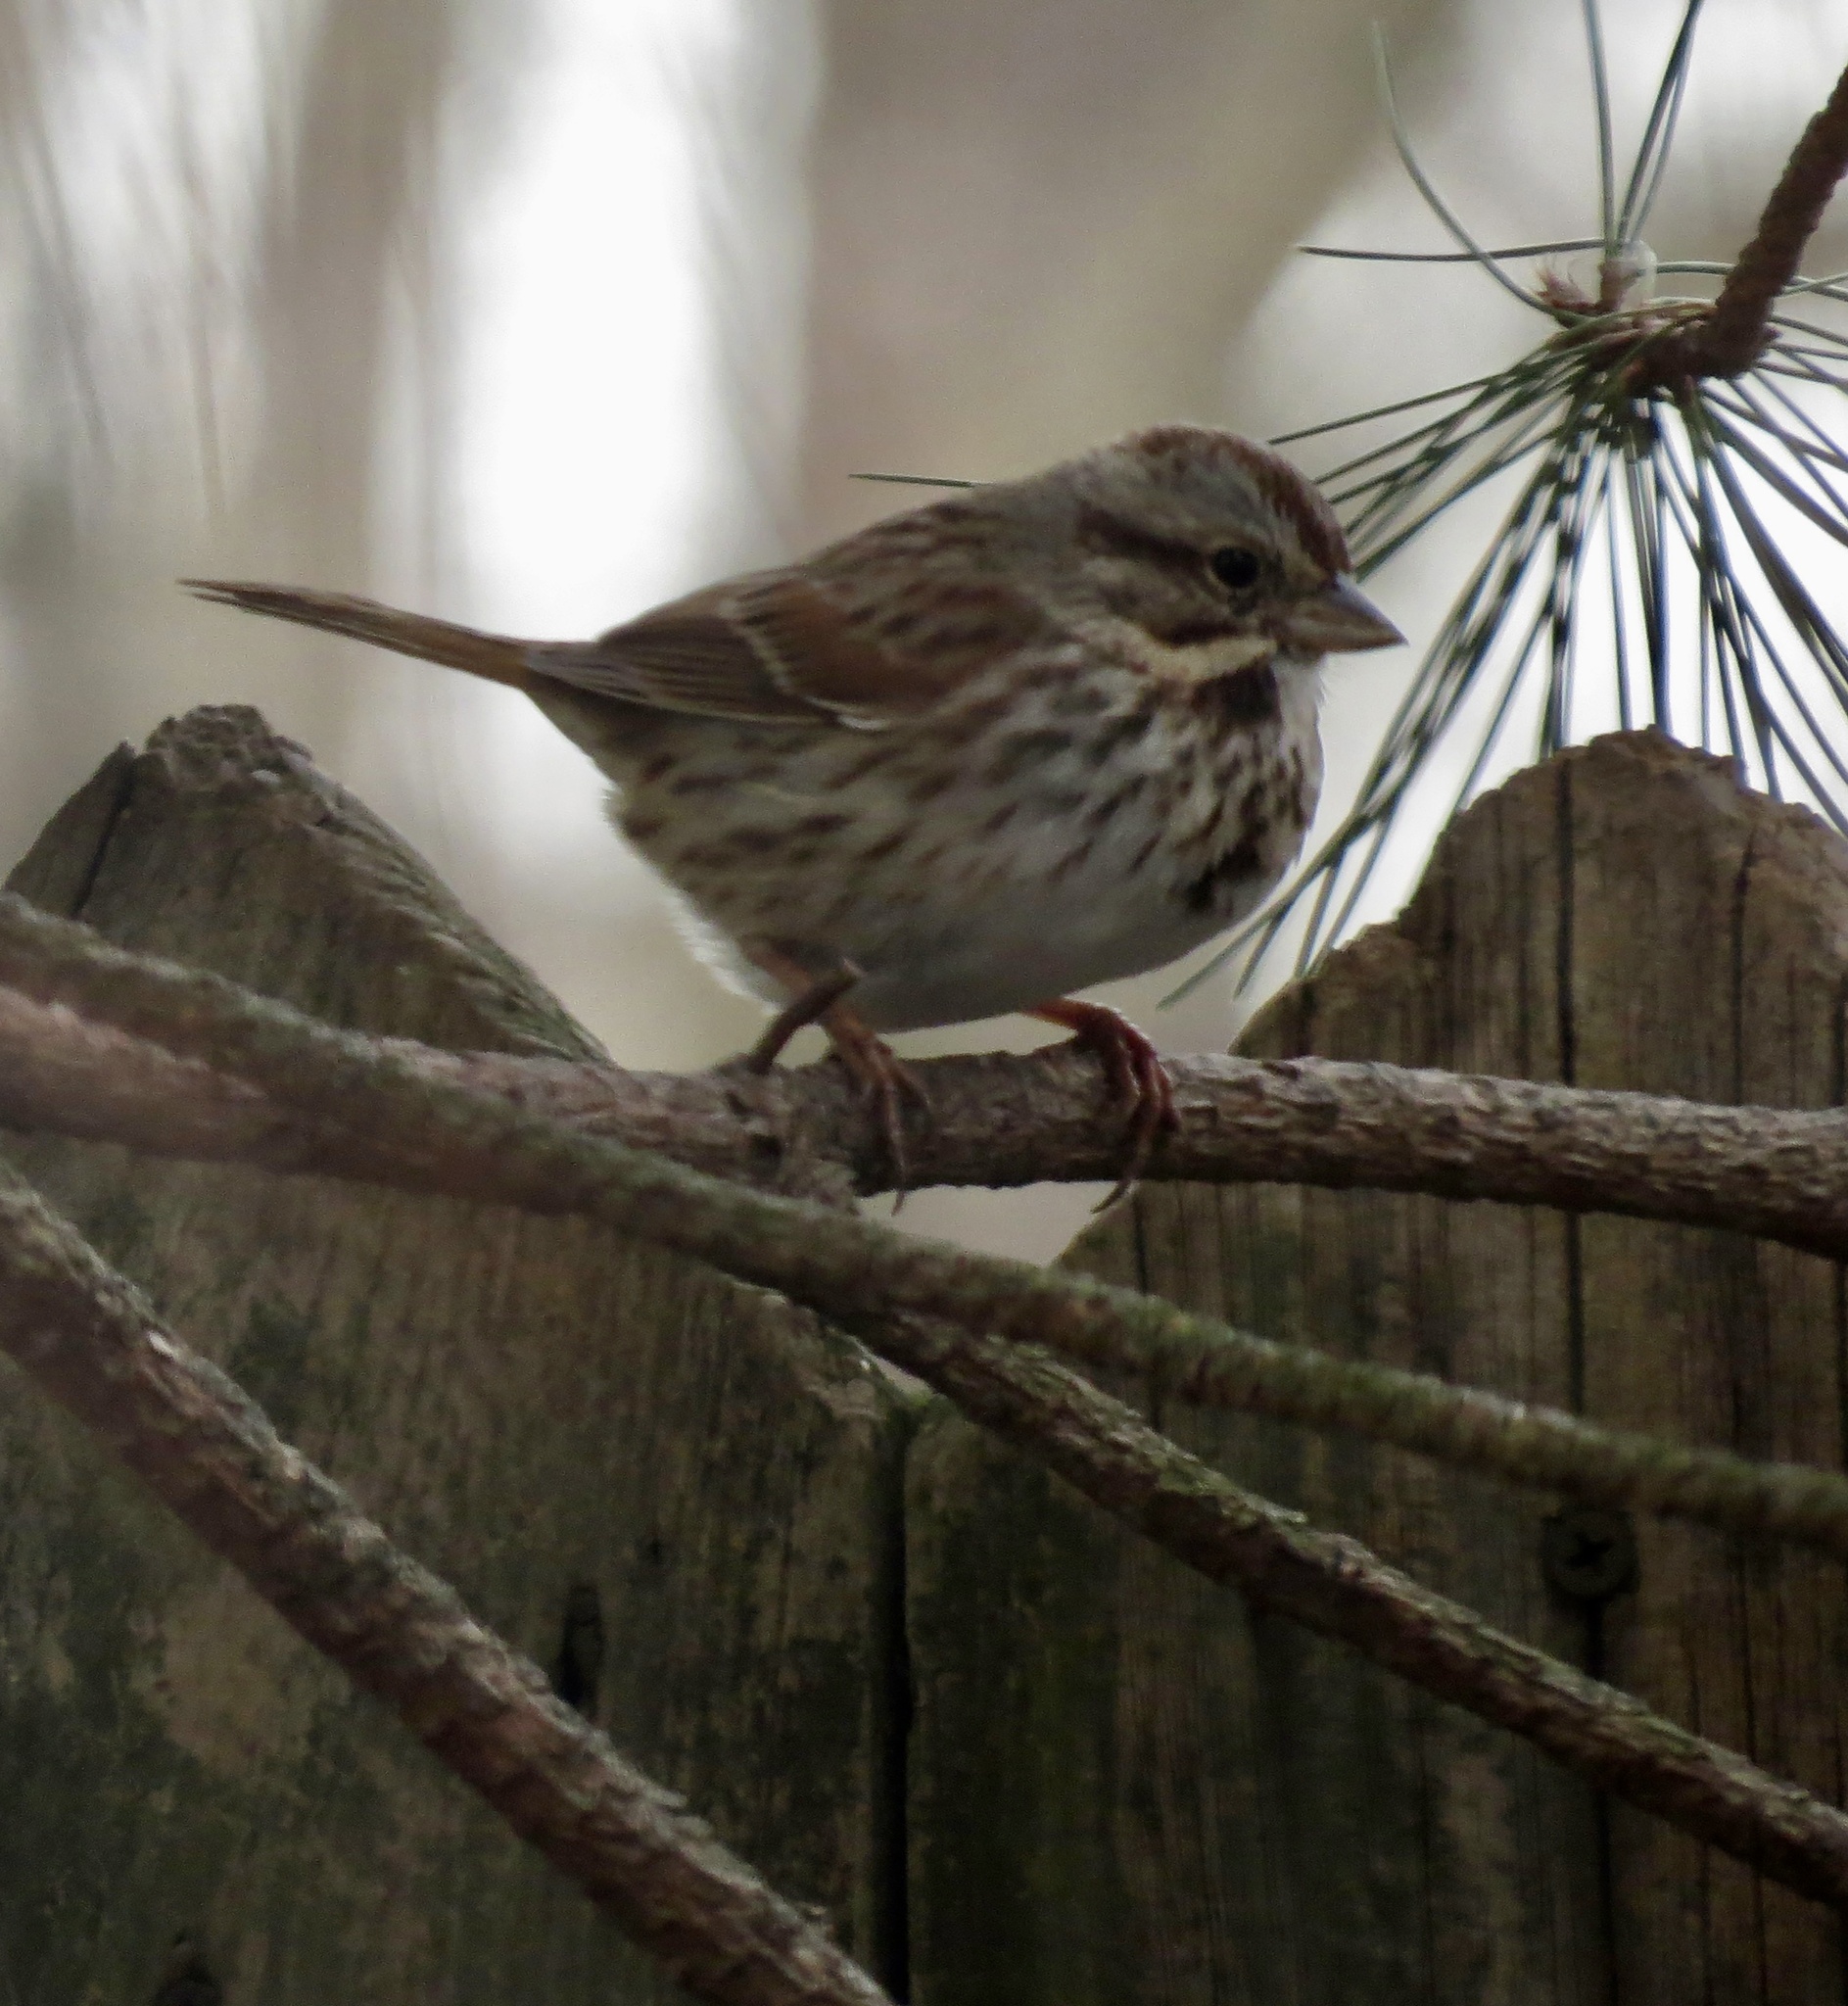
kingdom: Animalia
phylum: Chordata
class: Aves
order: Passeriformes
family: Passerellidae
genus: Melospiza
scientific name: Melospiza melodia
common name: Song sparrow
